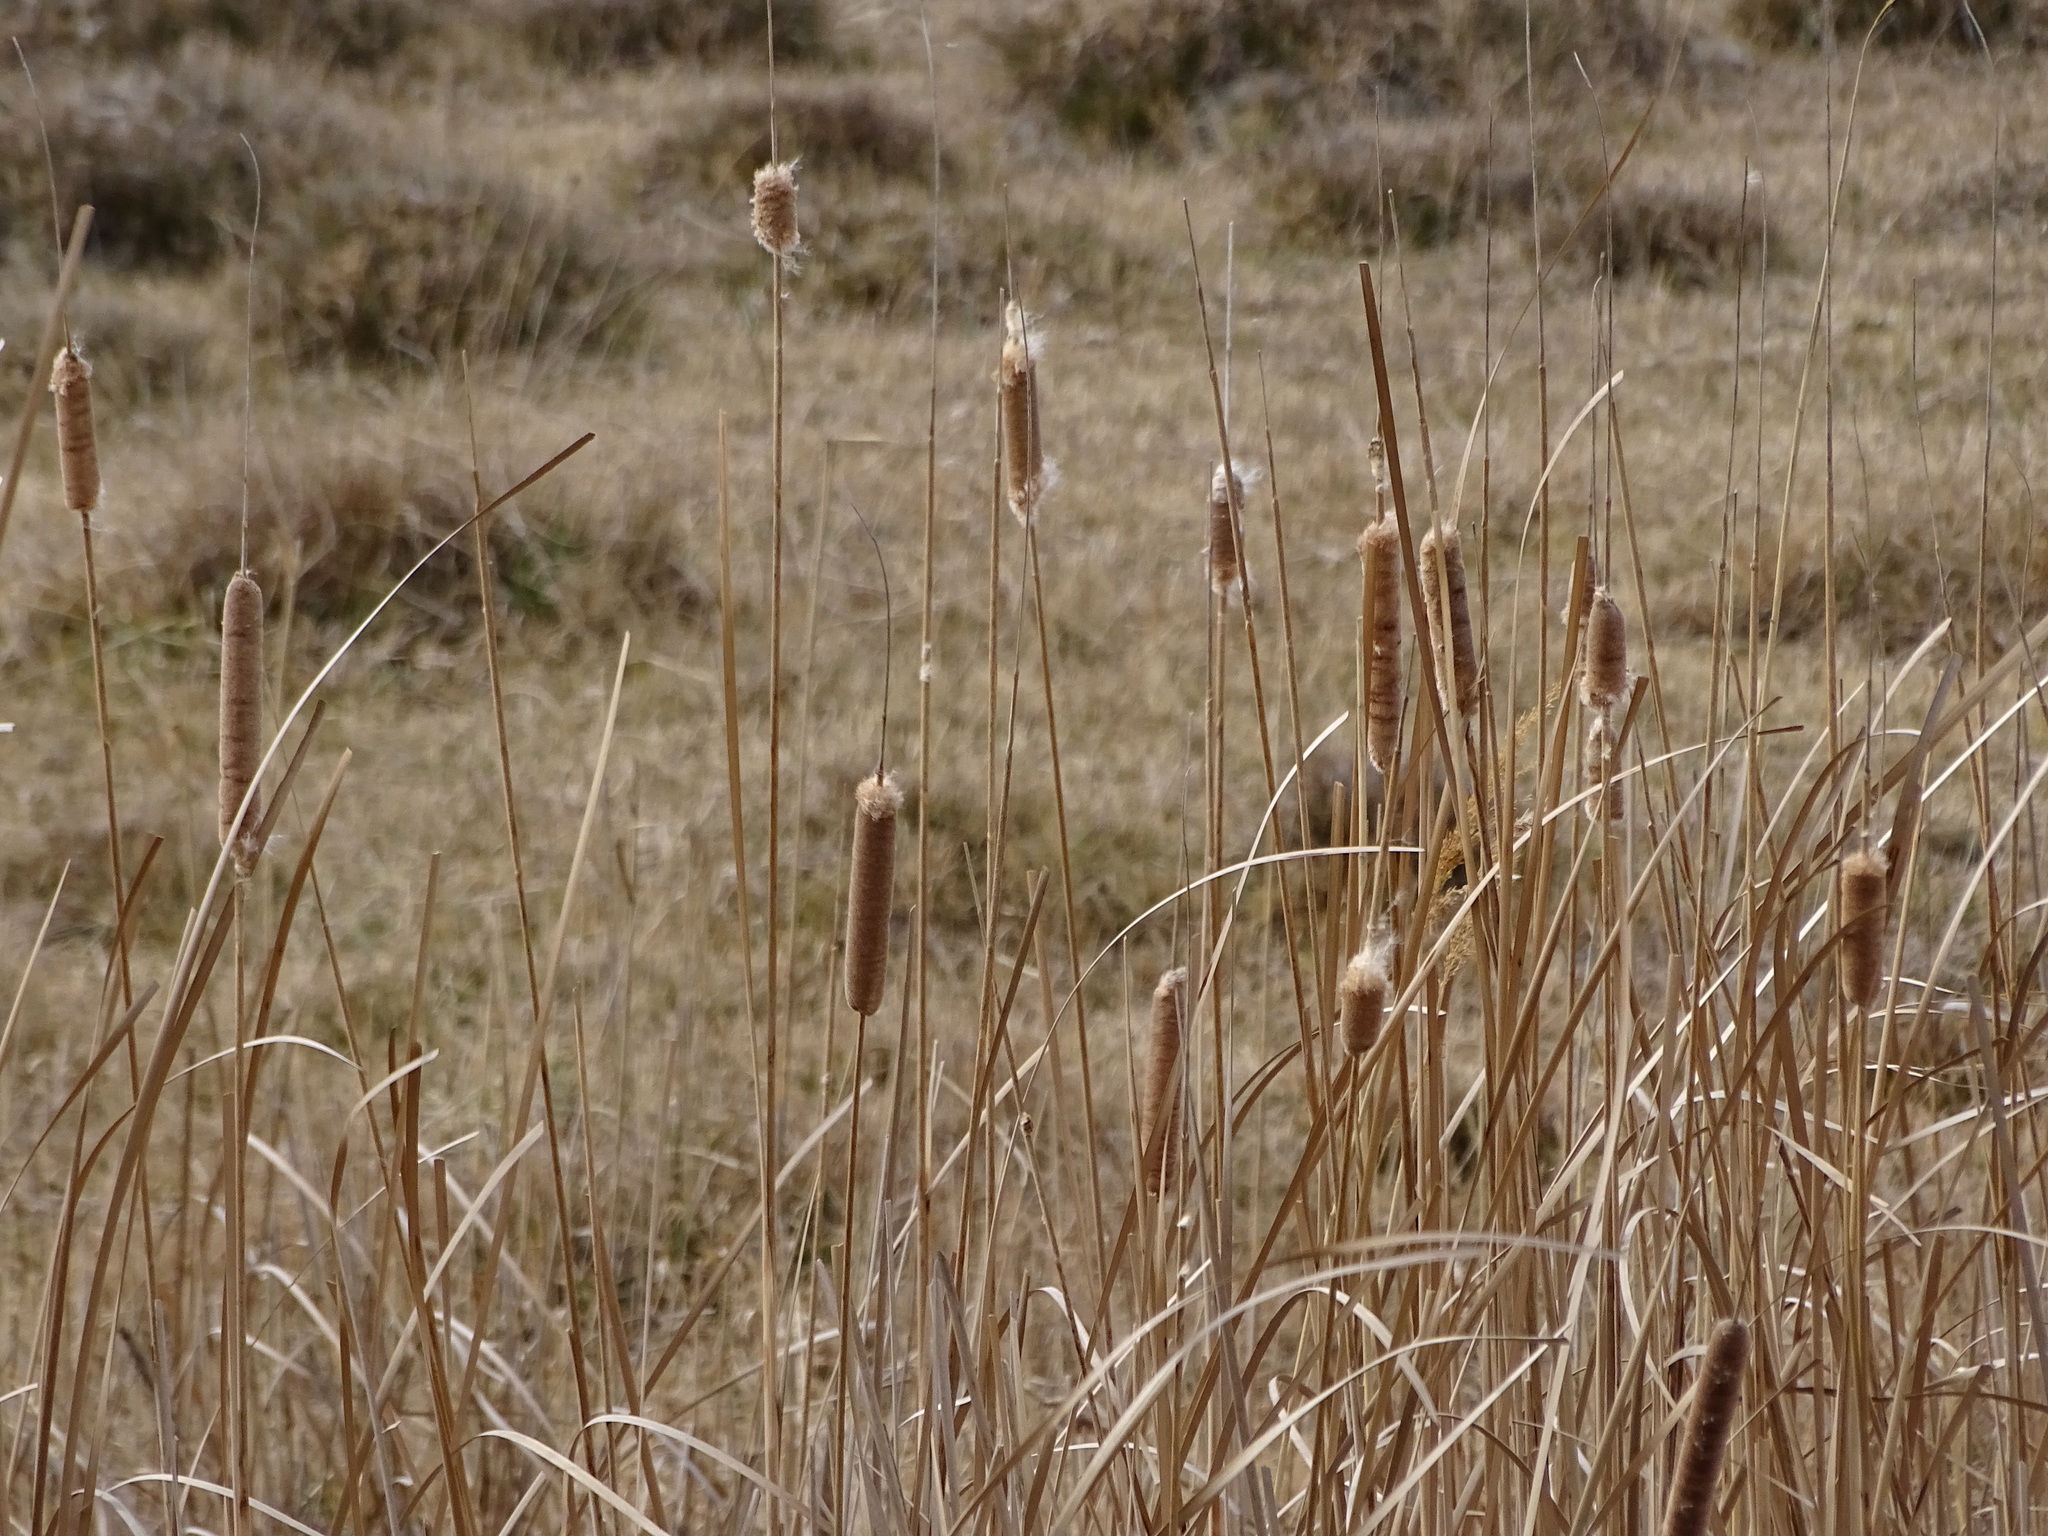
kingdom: Plantae
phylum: Tracheophyta
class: Liliopsida
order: Poales
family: Typhaceae
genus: Typha
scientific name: Typha angustifolia
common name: Lesser bulrush
